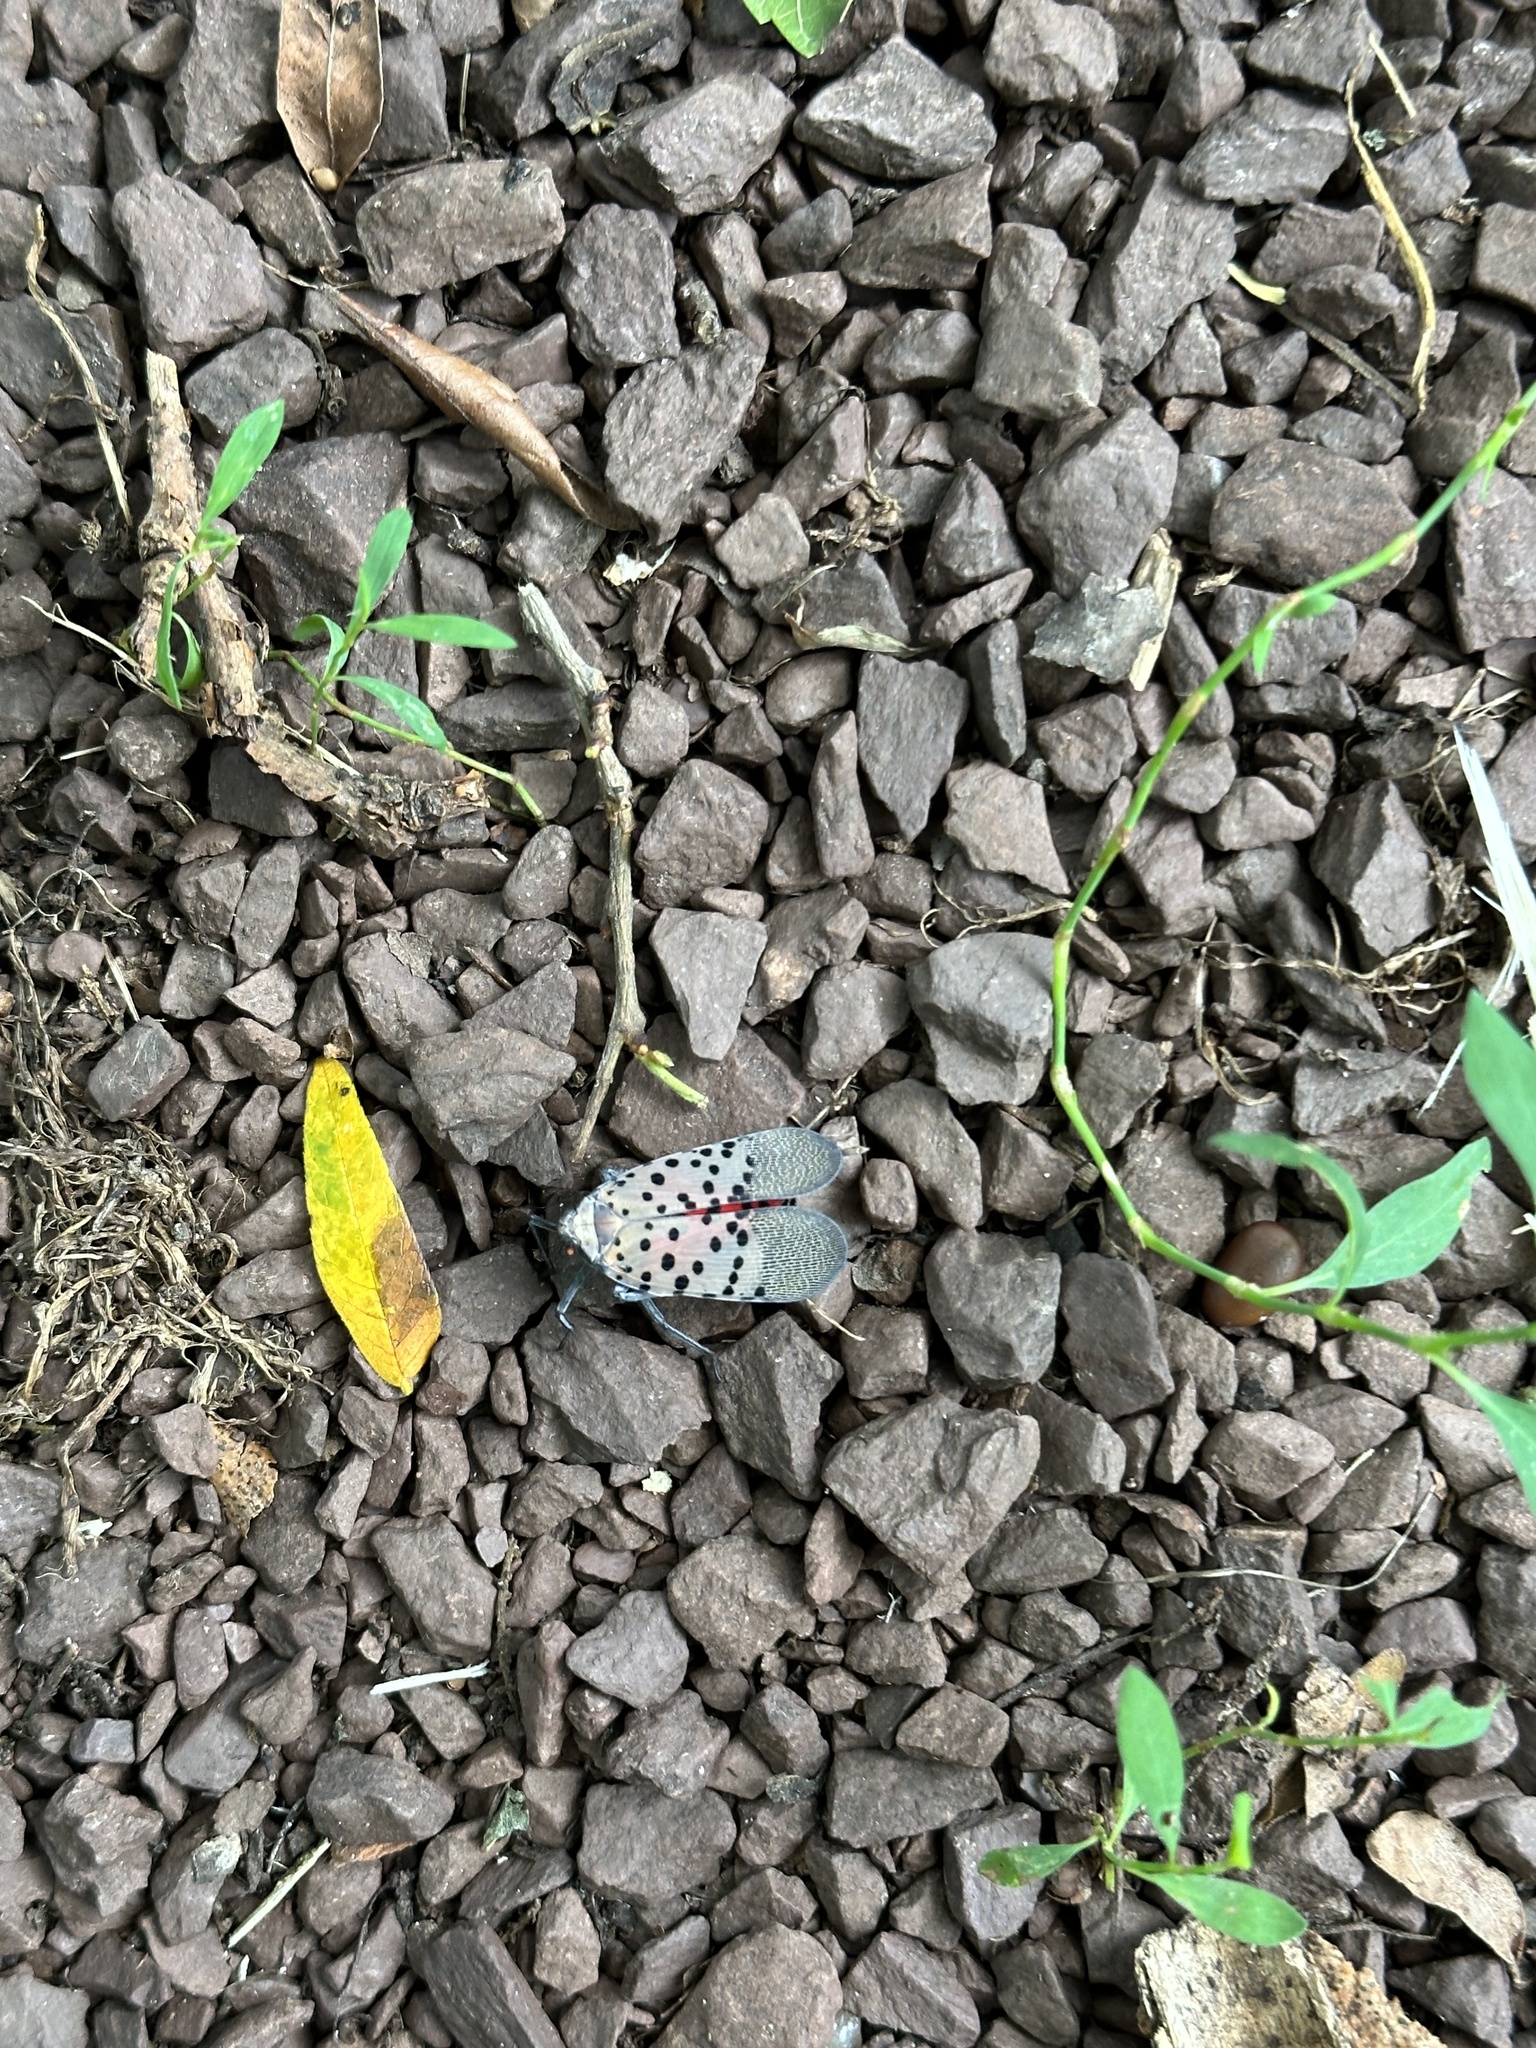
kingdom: Animalia
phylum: Arthropoda
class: Insecta
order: Hemiptera
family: Fulgoridae
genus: Lycorma
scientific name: Lycorma delicatula
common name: Spotted lanternfly
